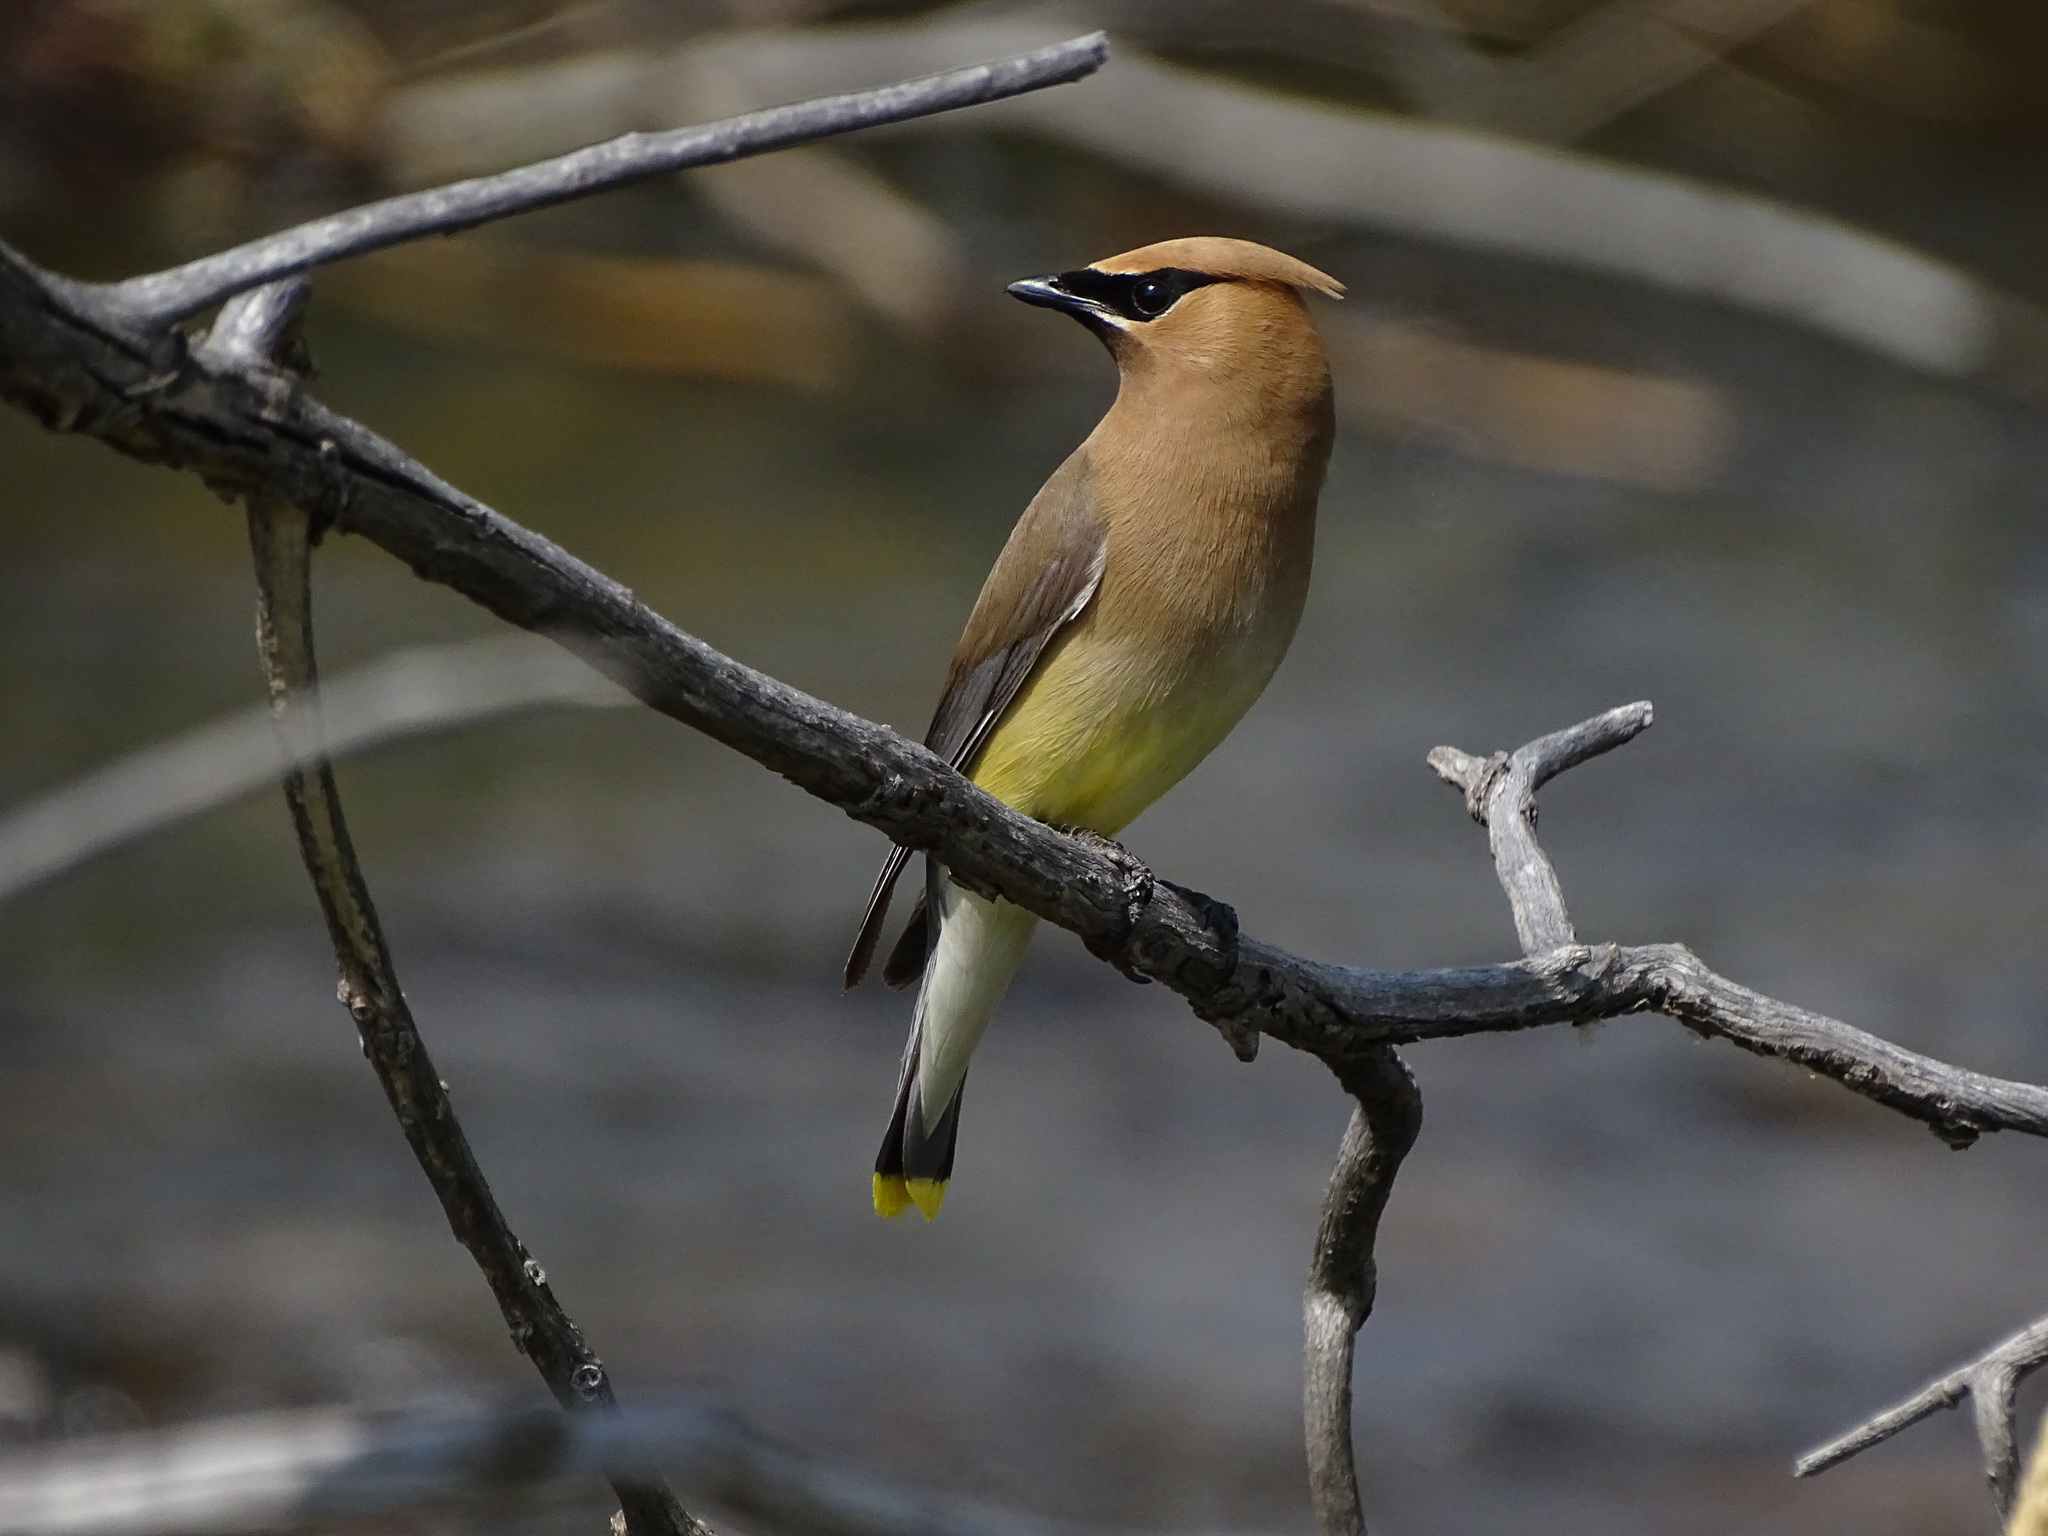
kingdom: Animalia
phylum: Chordata
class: Aves
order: Passeriformes
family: Bombycillidae
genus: Bombycilla
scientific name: Bombycilla cedrorum
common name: Cedar waxwing
